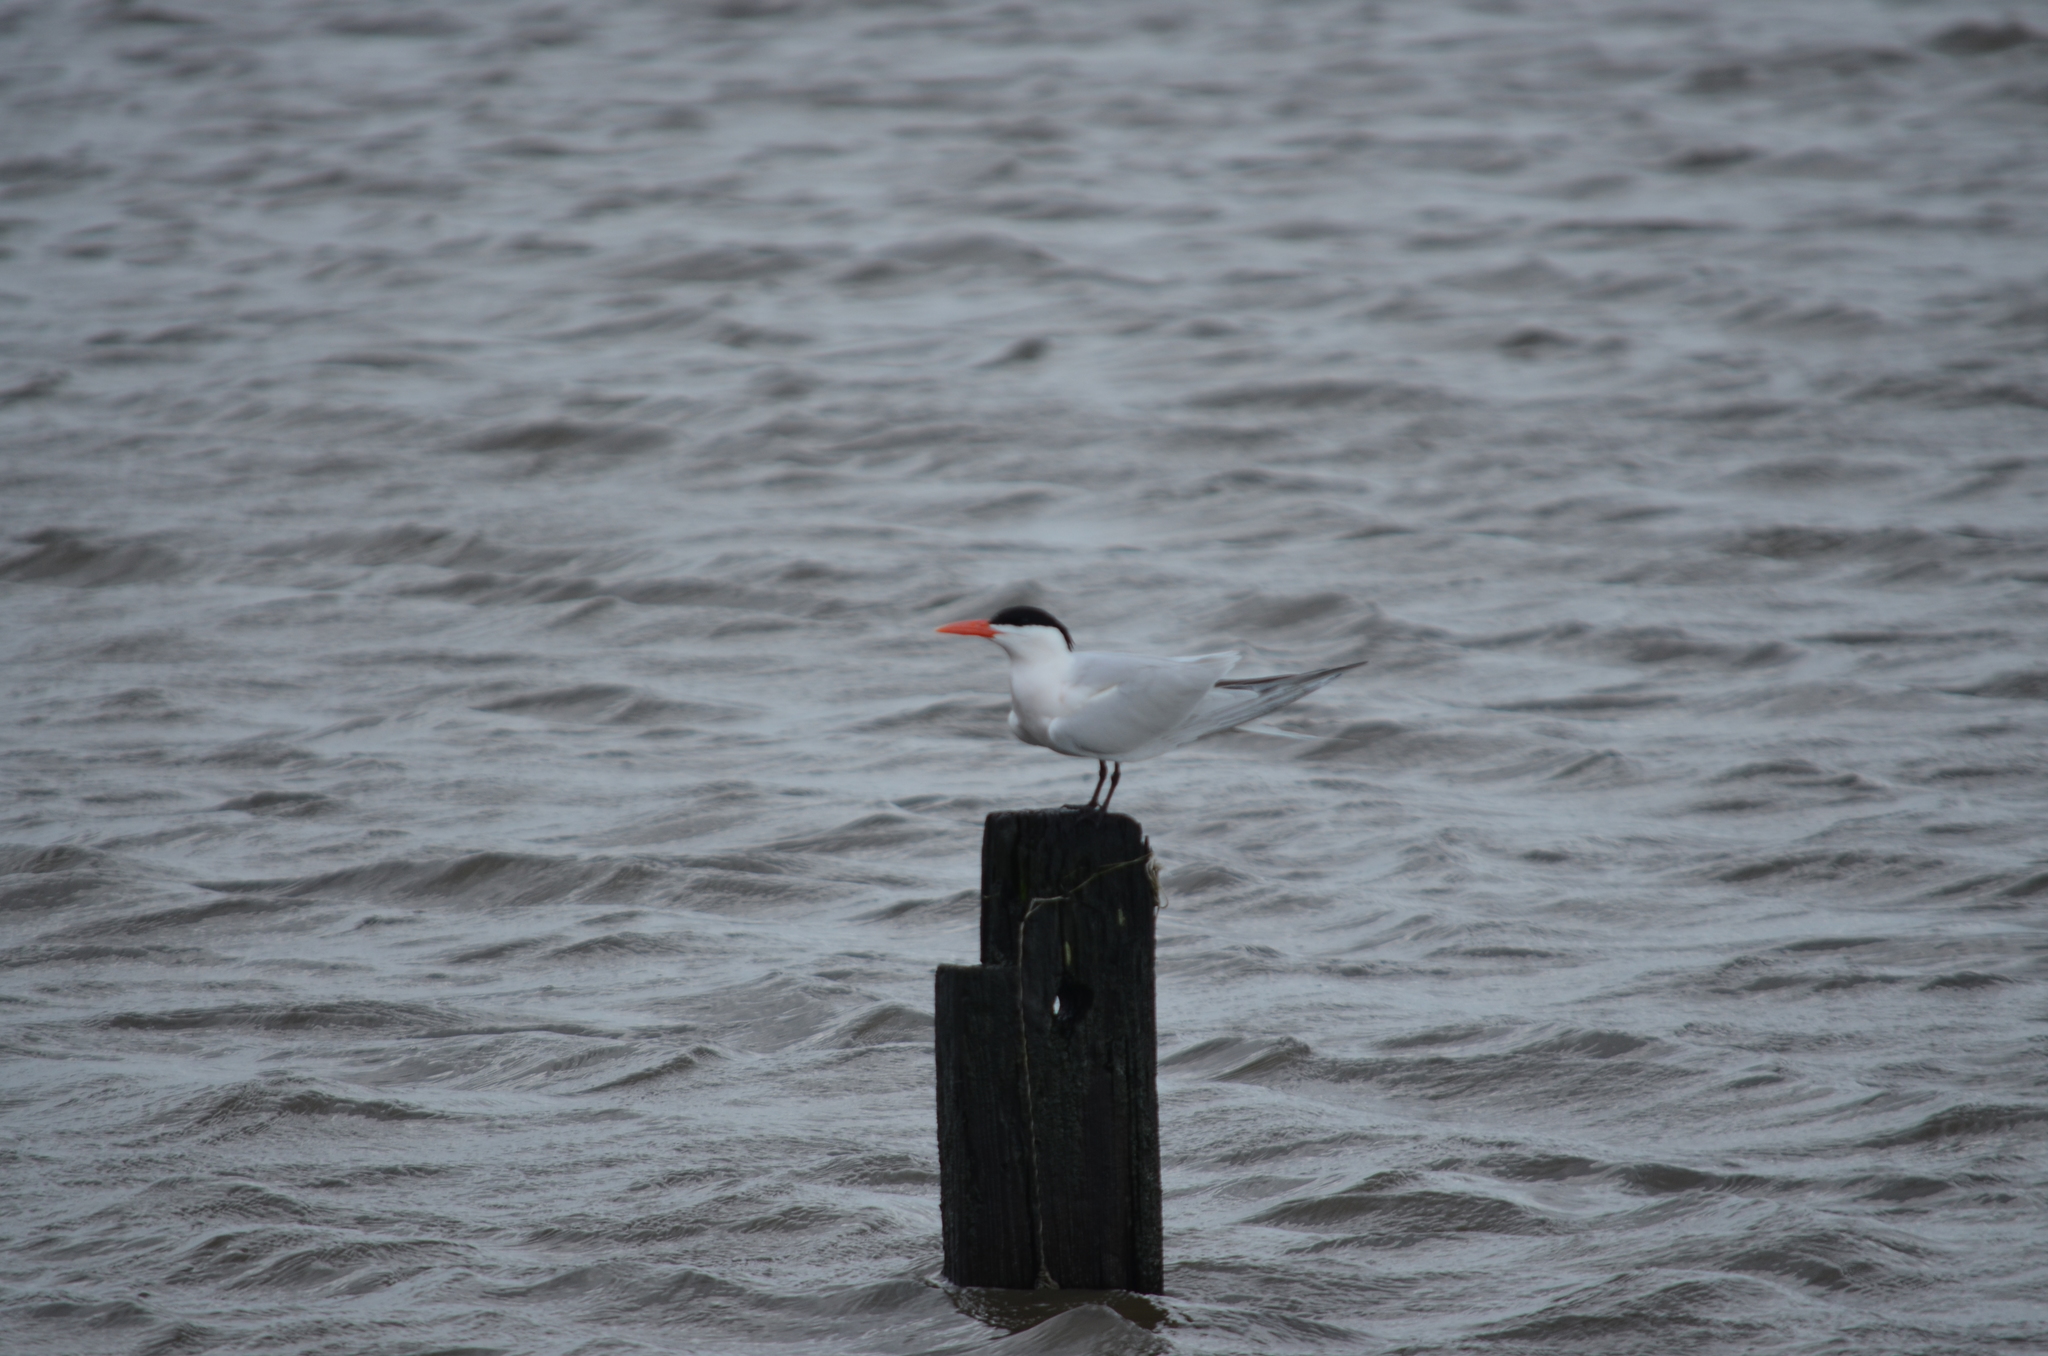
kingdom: Animalia
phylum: Chordata
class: Aves
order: Charadriiformes
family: Laridae
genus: Thalasseus
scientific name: Thalasseus maximus
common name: Royal tern
